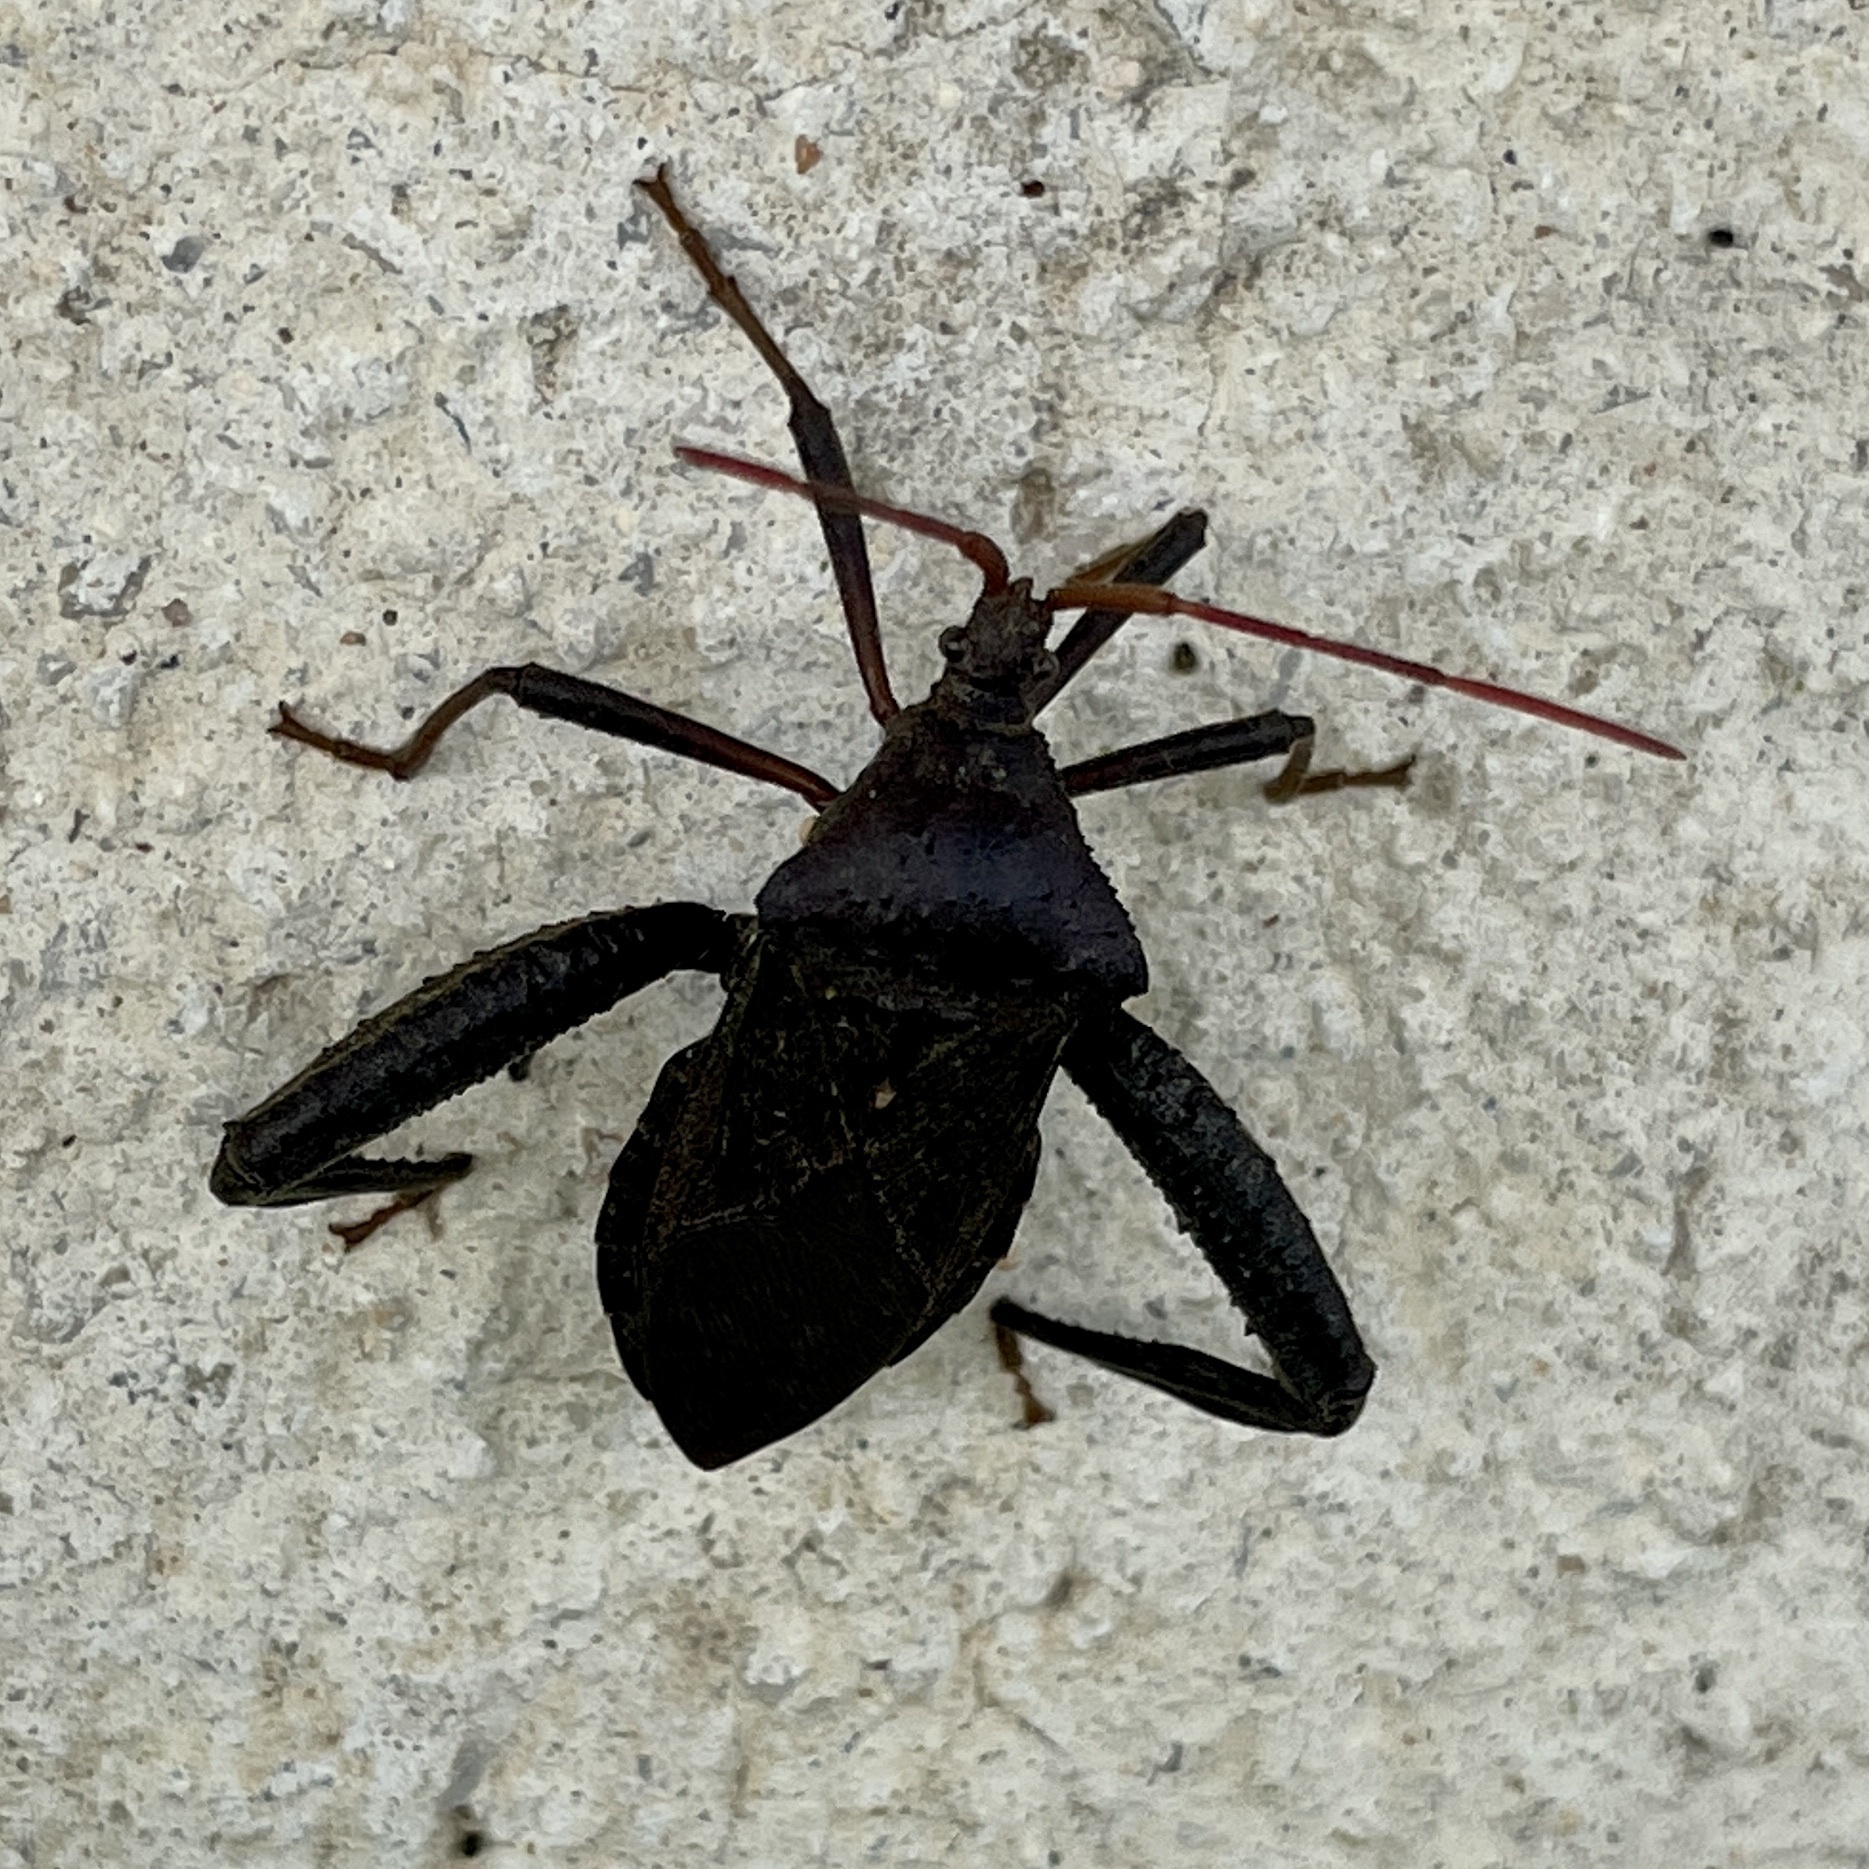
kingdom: Animalia
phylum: Arthropoda
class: Insecta
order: Hemiptera
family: Coreidae
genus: Acanthocephala
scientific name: Acanthocephala femorata
